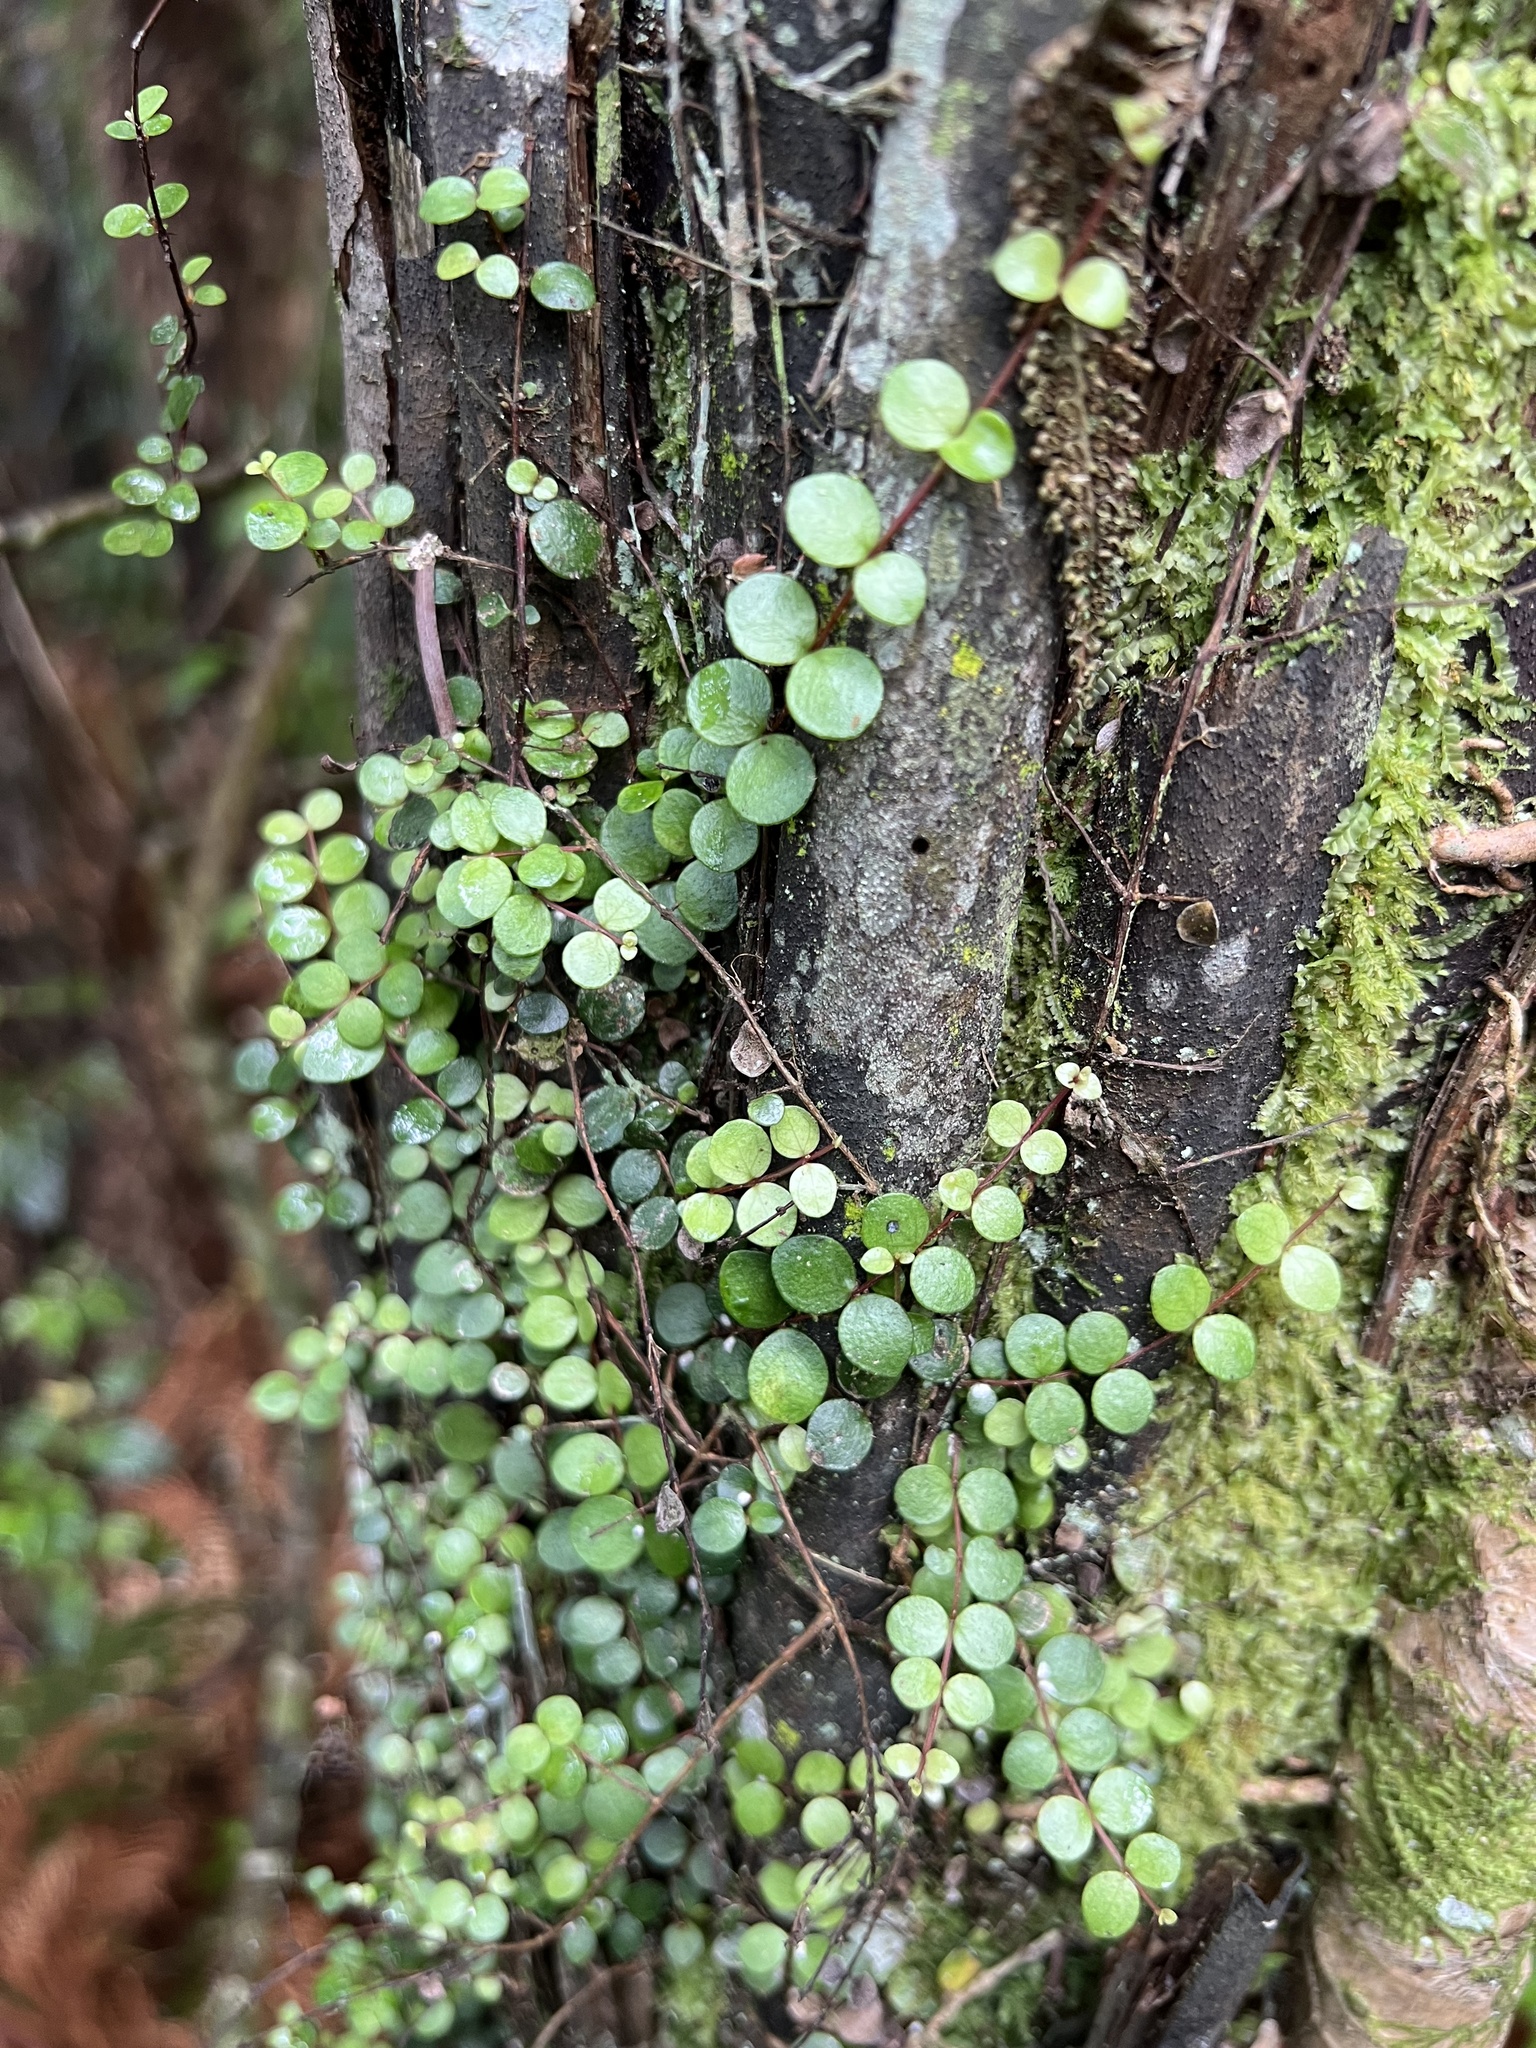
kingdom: Plantae
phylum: Tracheophyta
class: Magnoliopsida
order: Myrtales
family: Myrtaceae
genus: Metrosideros
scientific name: Metrosideros perforata
